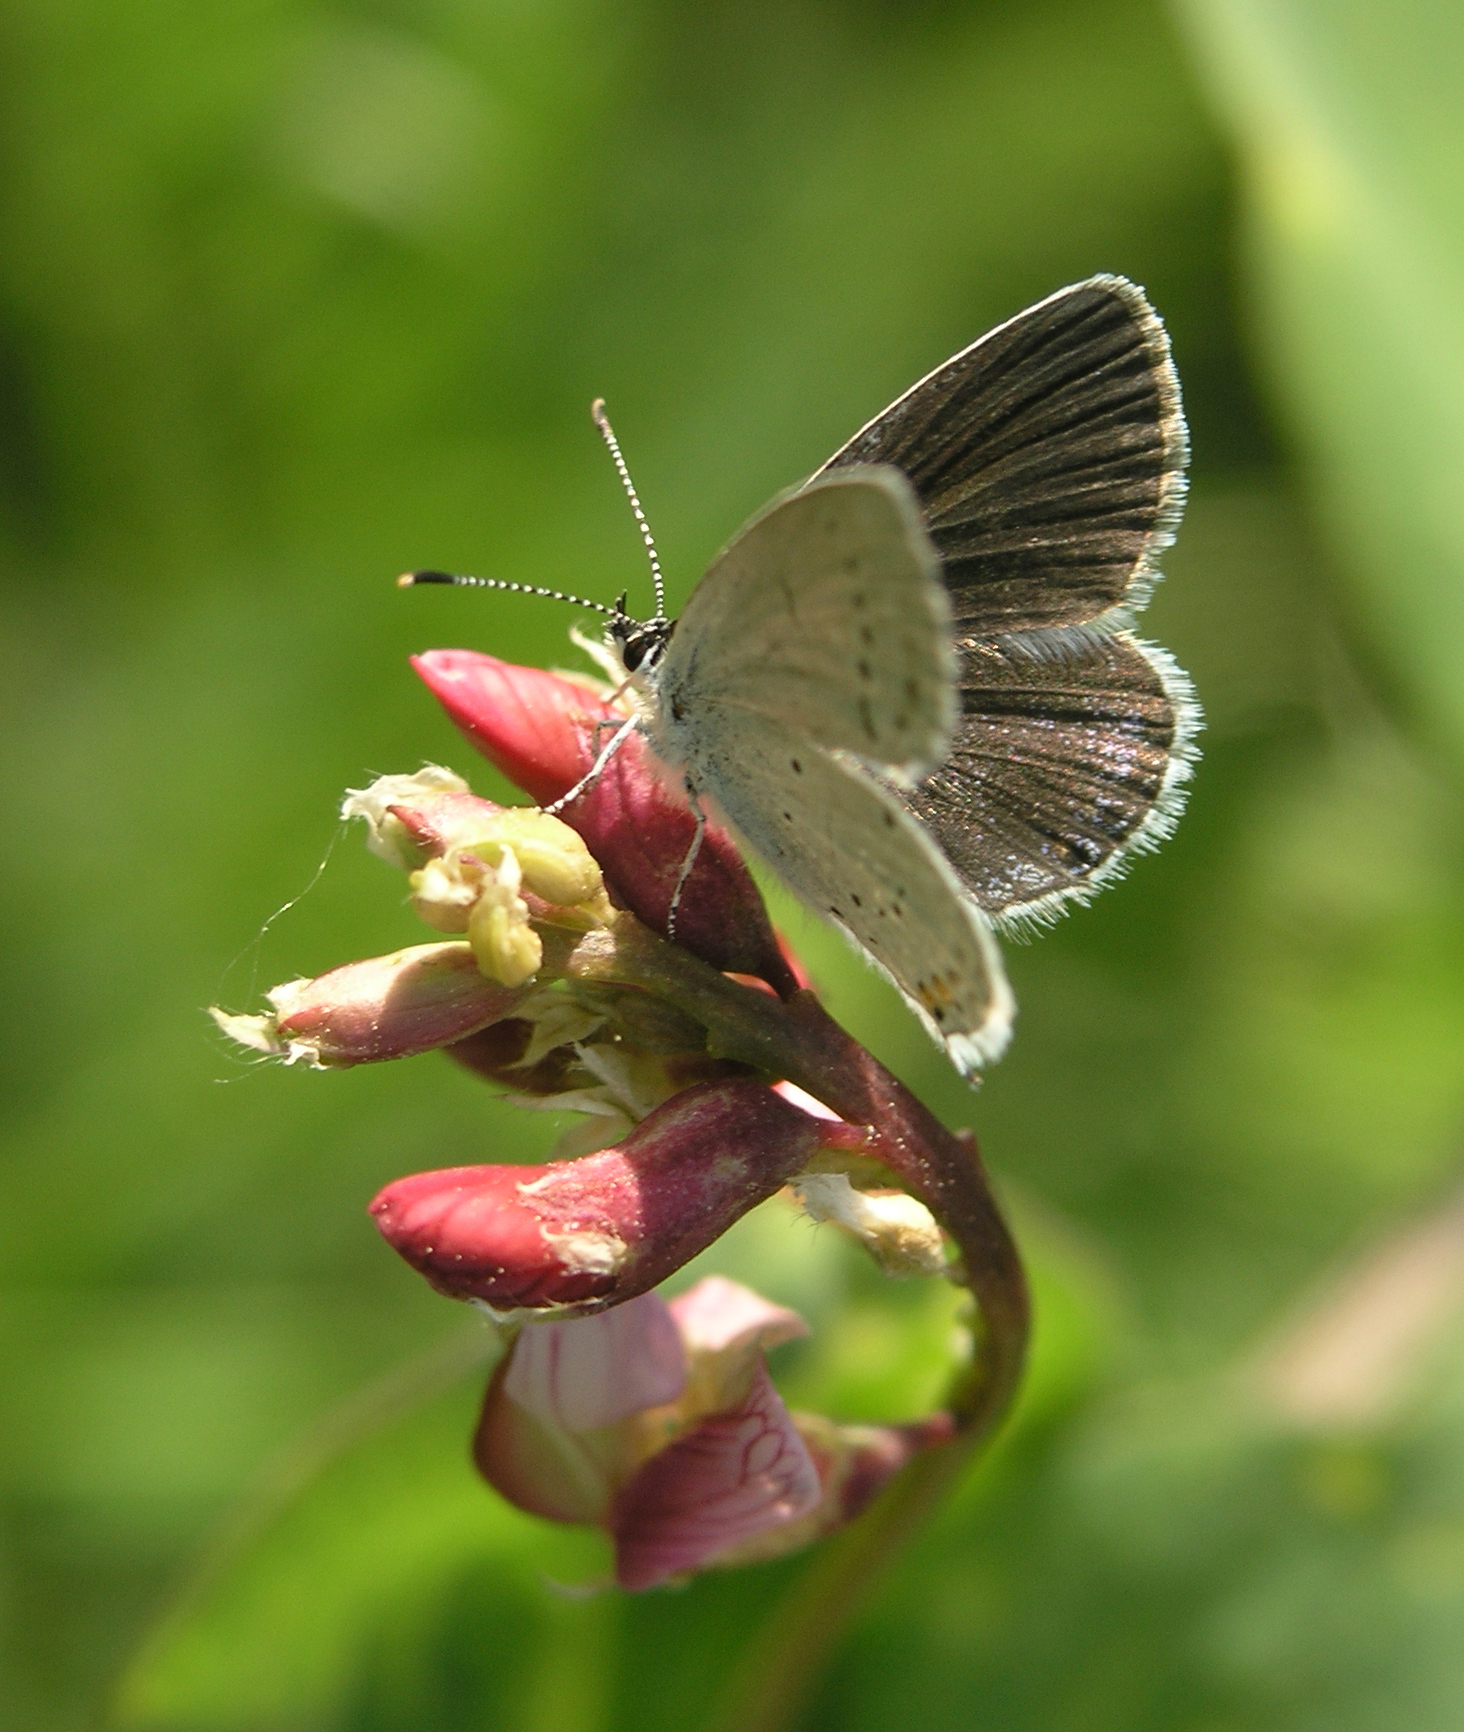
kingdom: Plantae
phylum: Tracheophyta
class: Magnoliopsida
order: Fabales
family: Fabaceae
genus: Lathyrus
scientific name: Lathyrus pisiformis
